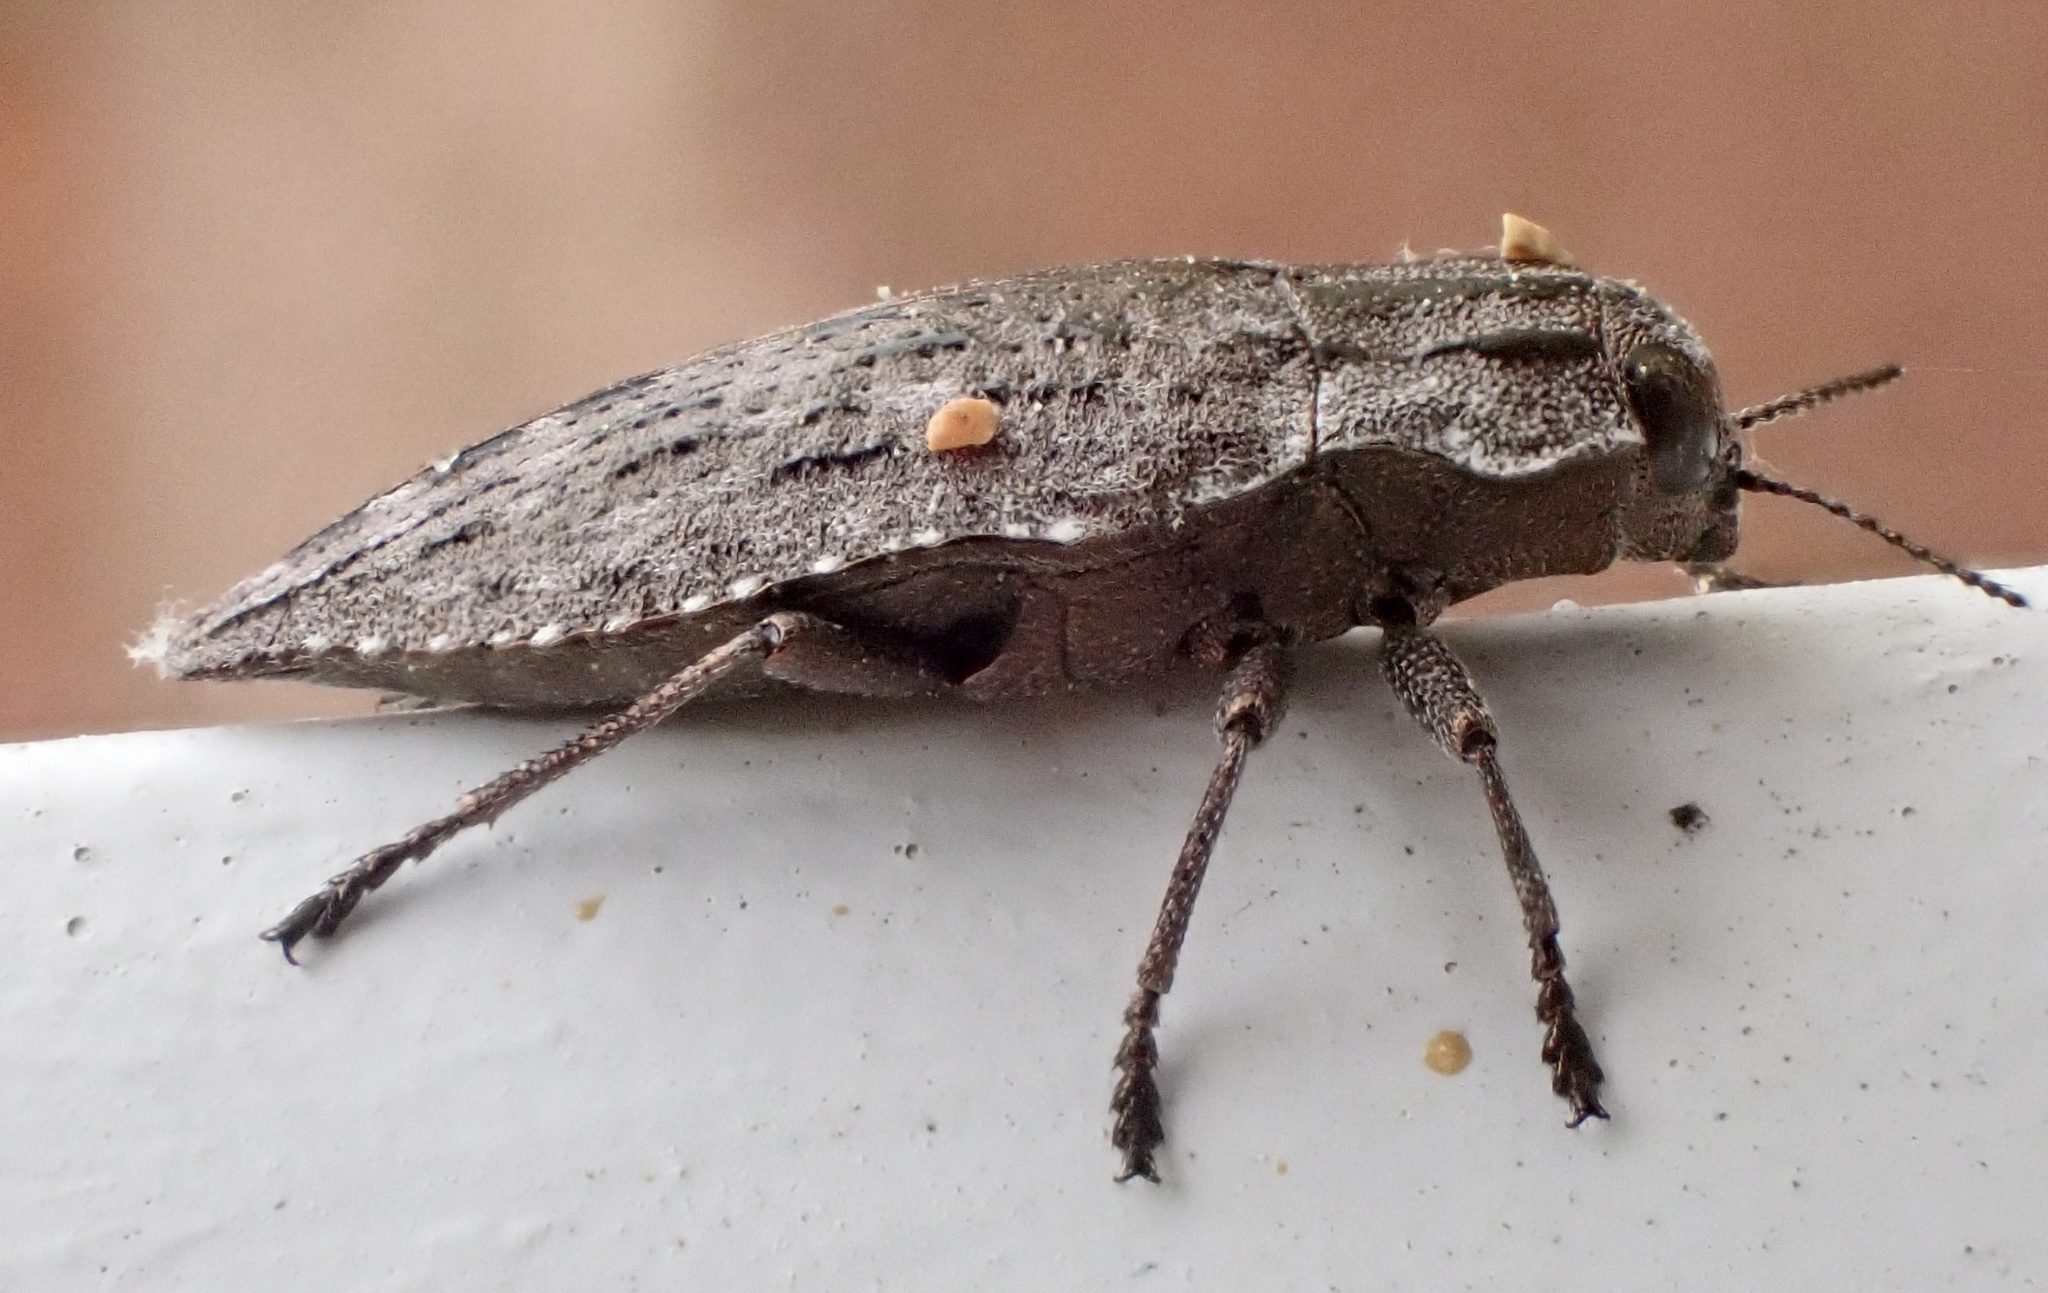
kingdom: Animalia
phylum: Arthropoda
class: Insecta
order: Coleoptera
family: Buprestidae
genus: Dicerca
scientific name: Dicerca punctulata
